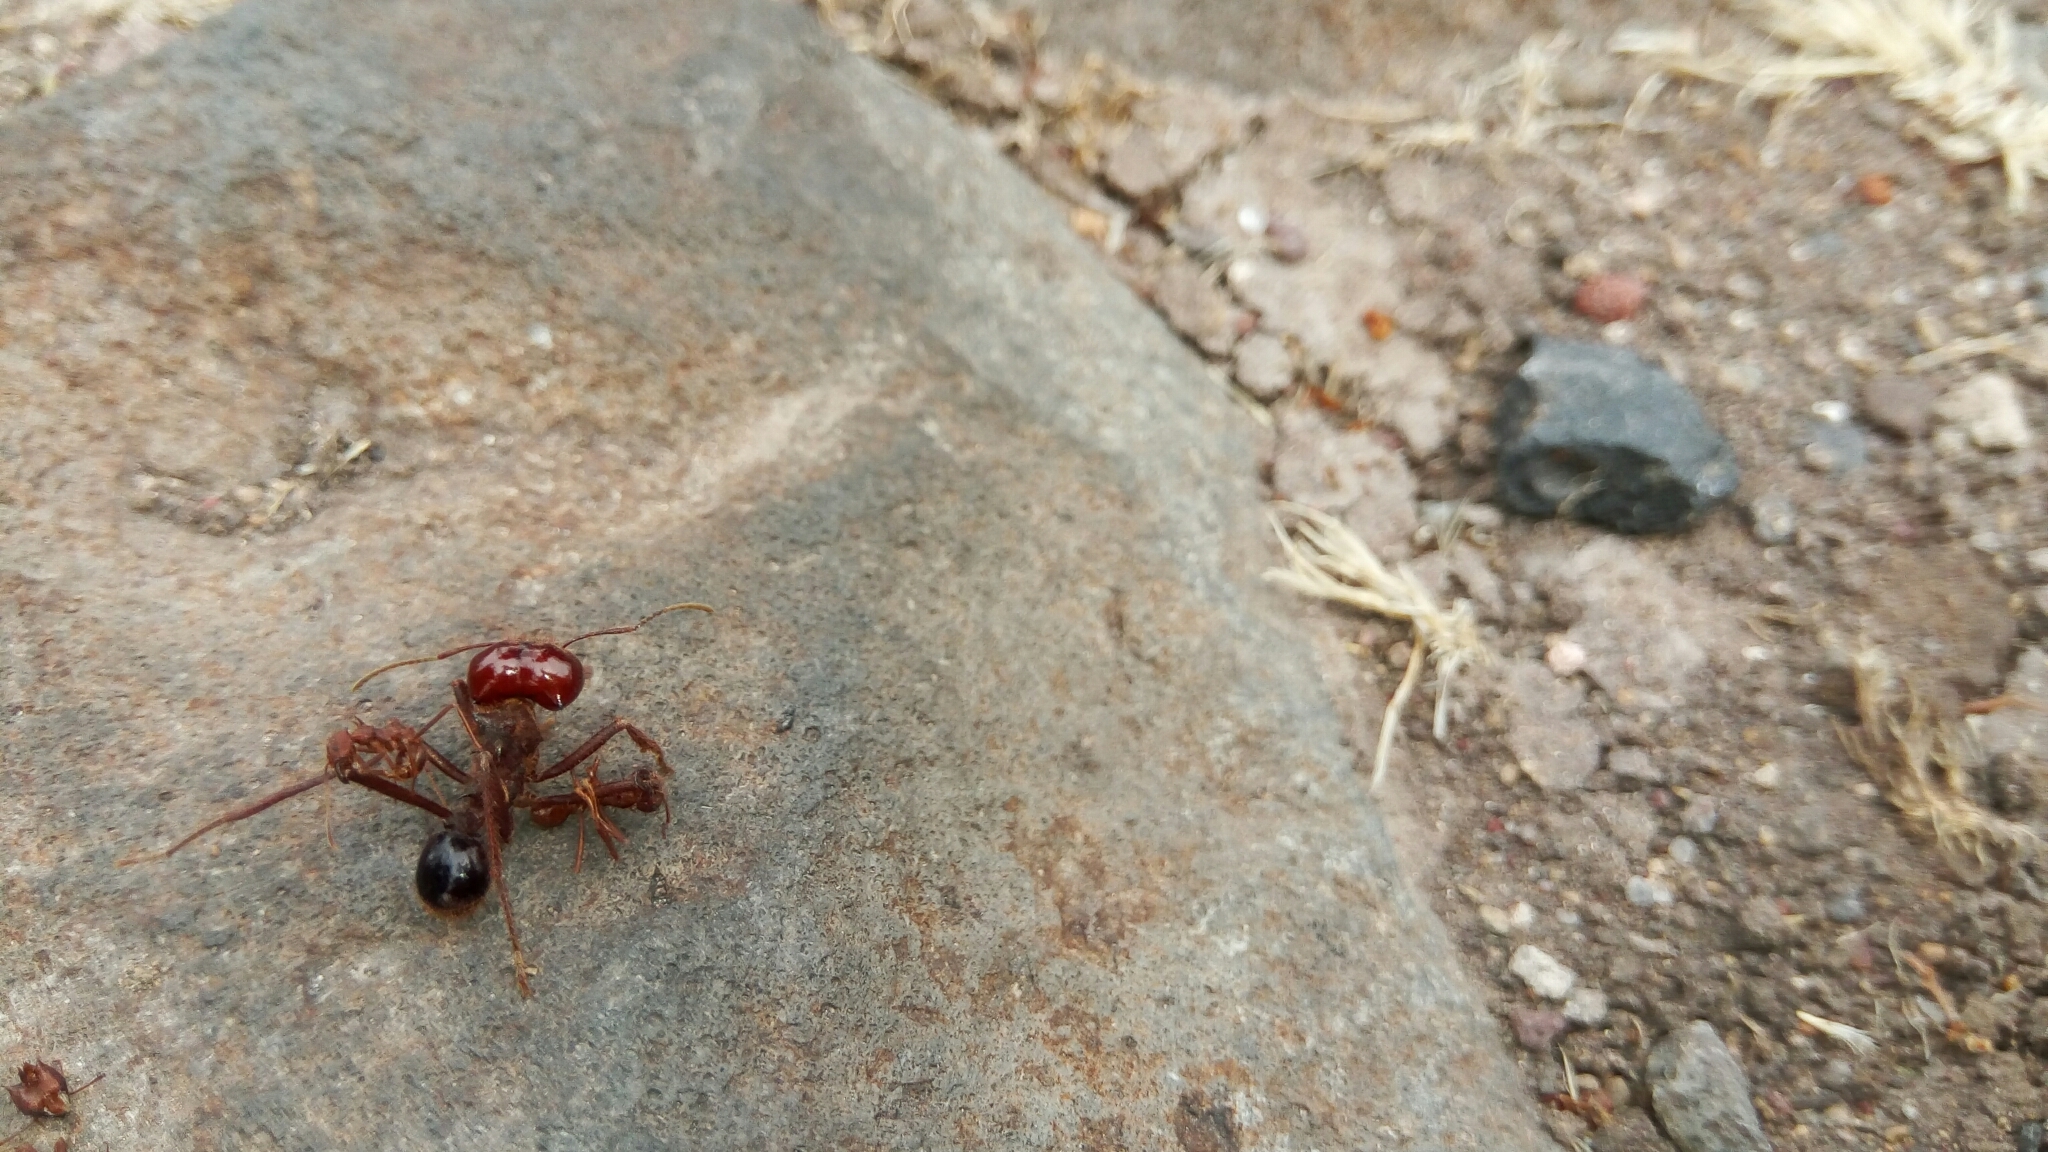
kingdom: Animalia
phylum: Arthropoda
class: Insecta
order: Hymenoptera
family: Formicidae
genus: Atta
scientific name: Atta mexicana
